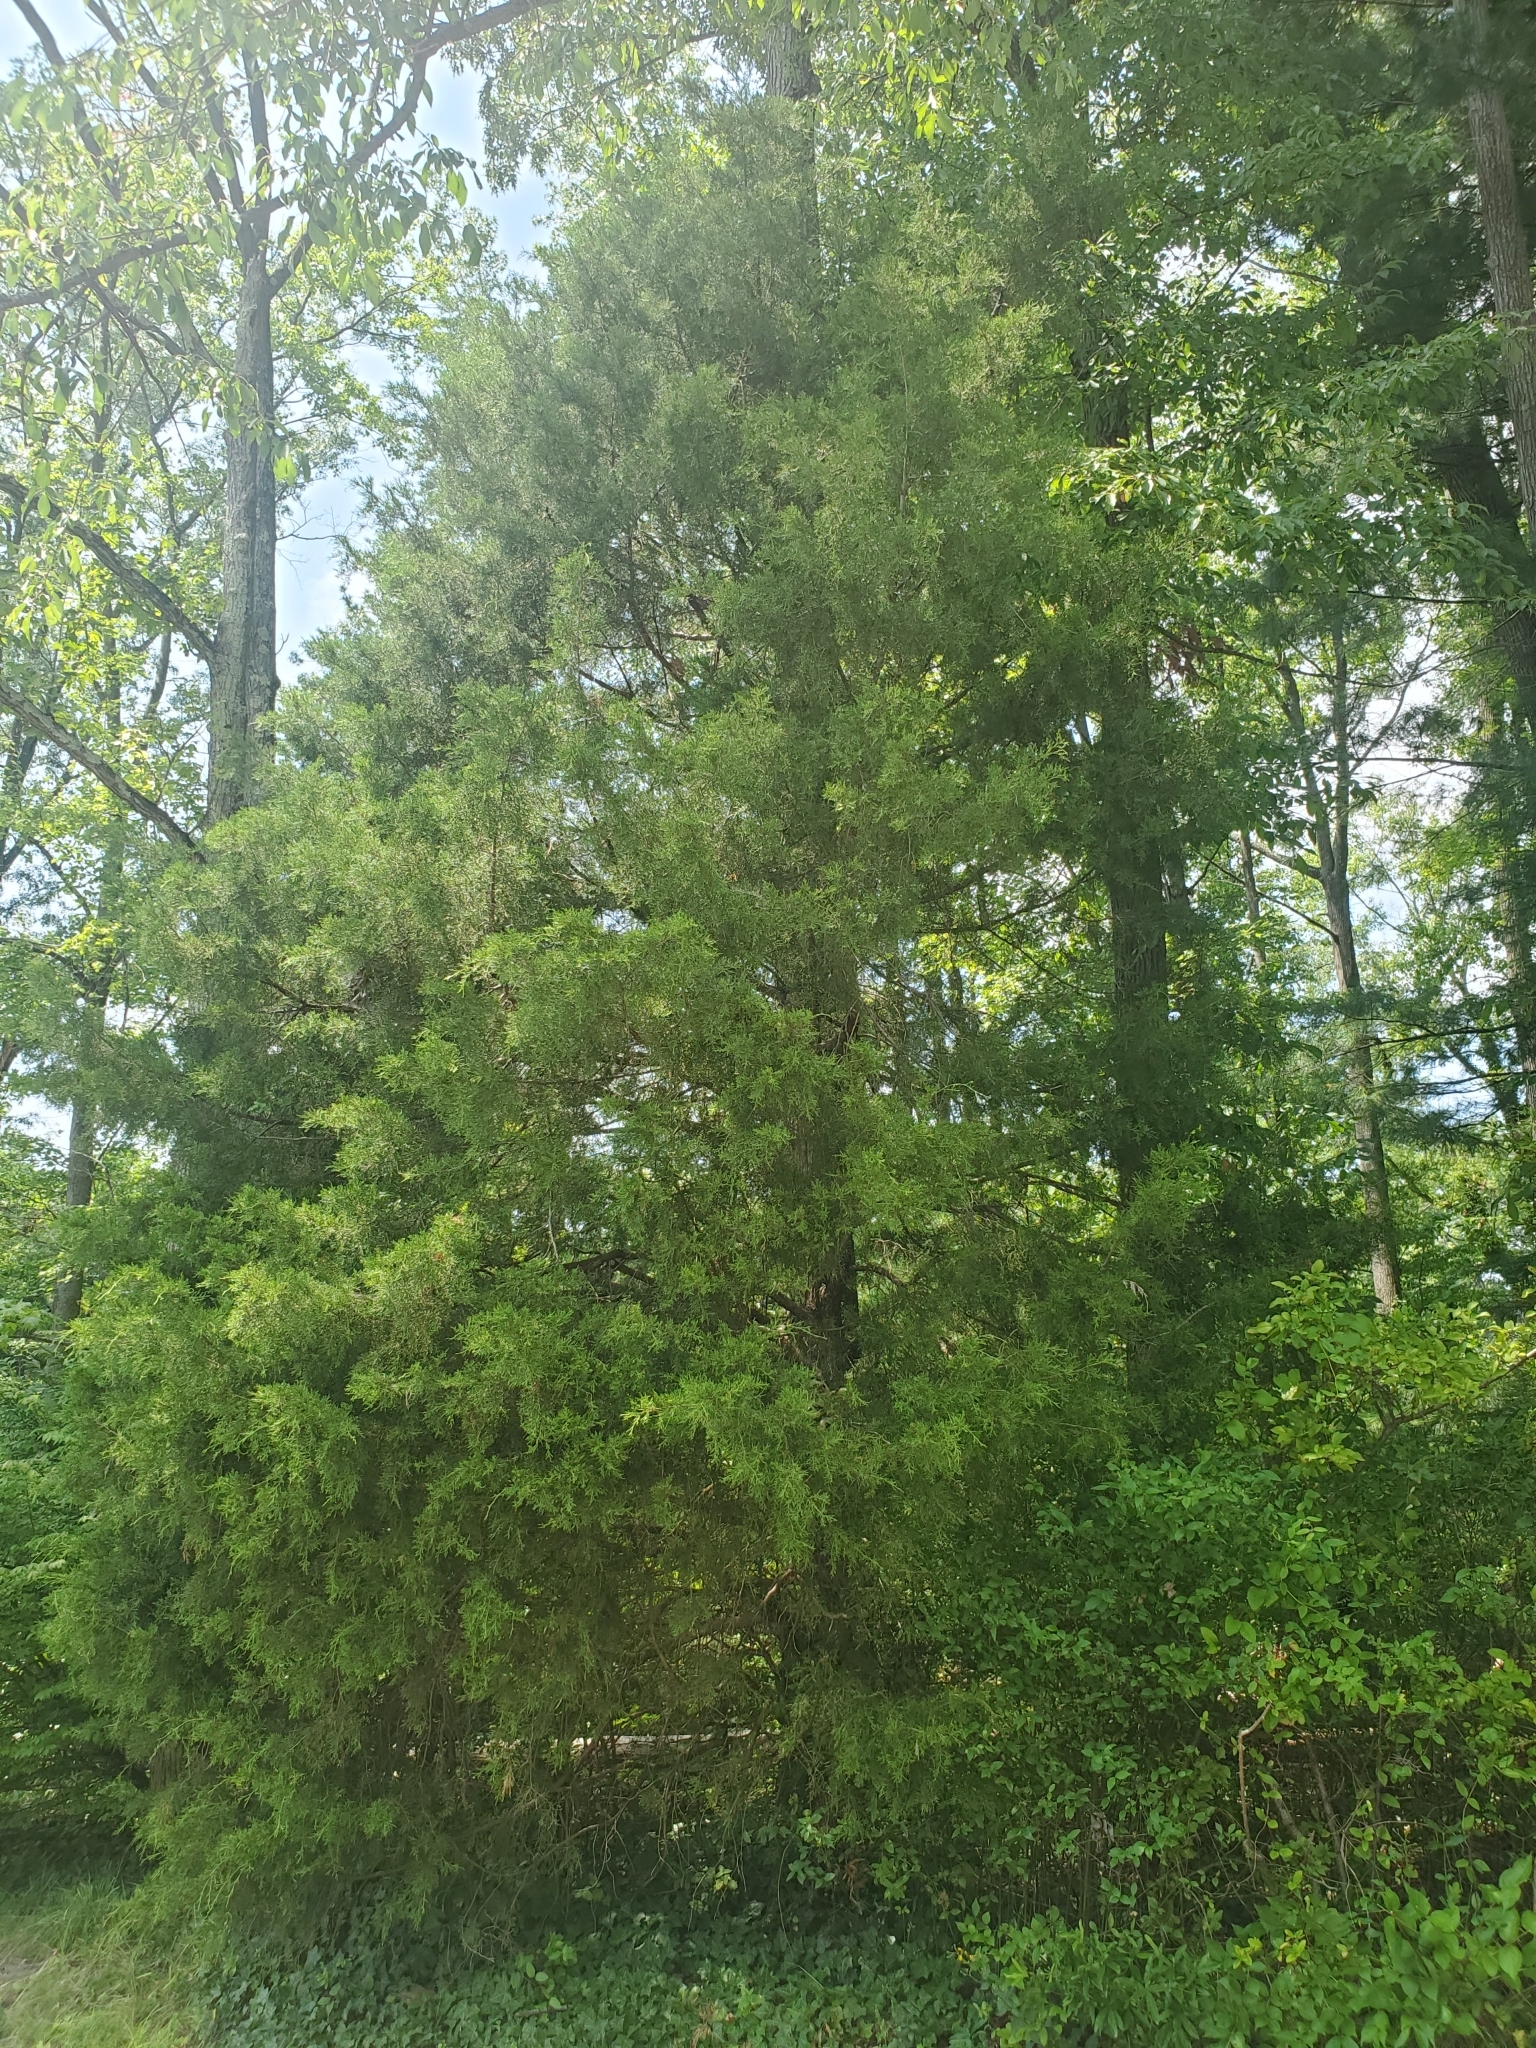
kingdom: Plantae
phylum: Tracheophyta
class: Pinopsida
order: Pinales
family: Cupressaceae
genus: Juniperus
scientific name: Juniperus virginiana
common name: Red juniper
